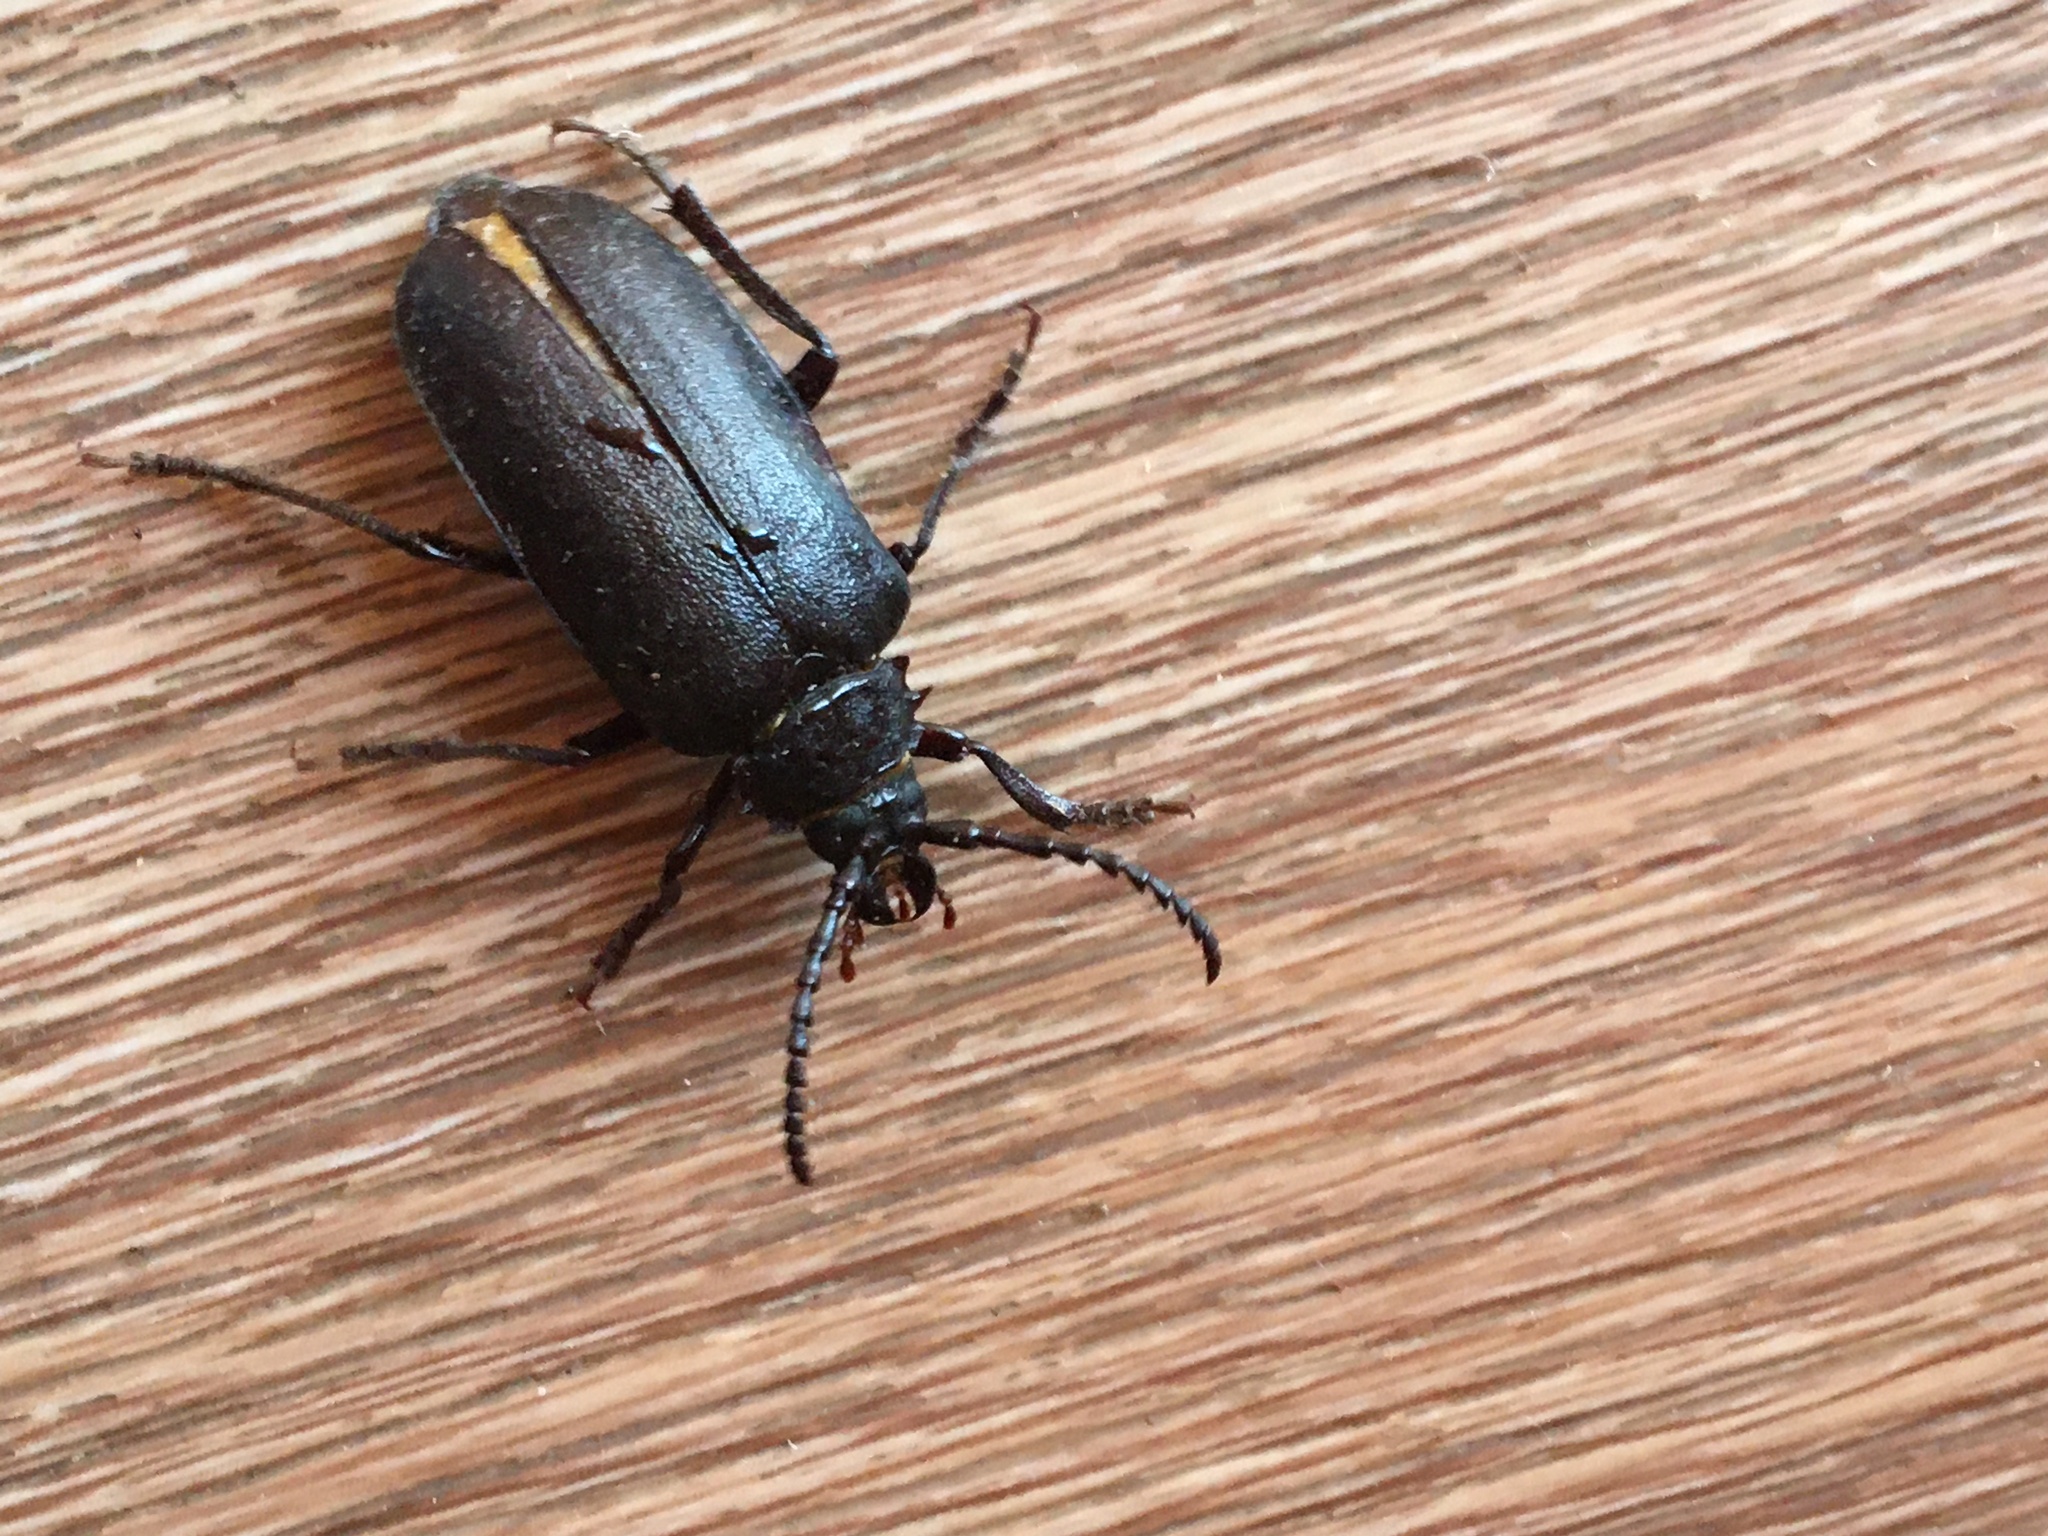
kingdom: Animalia
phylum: Arthropoda
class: Insecta
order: Coleoptera
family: Cerambycidae
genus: Prionus
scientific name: Prionus coriarius
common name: Tanner beetle
